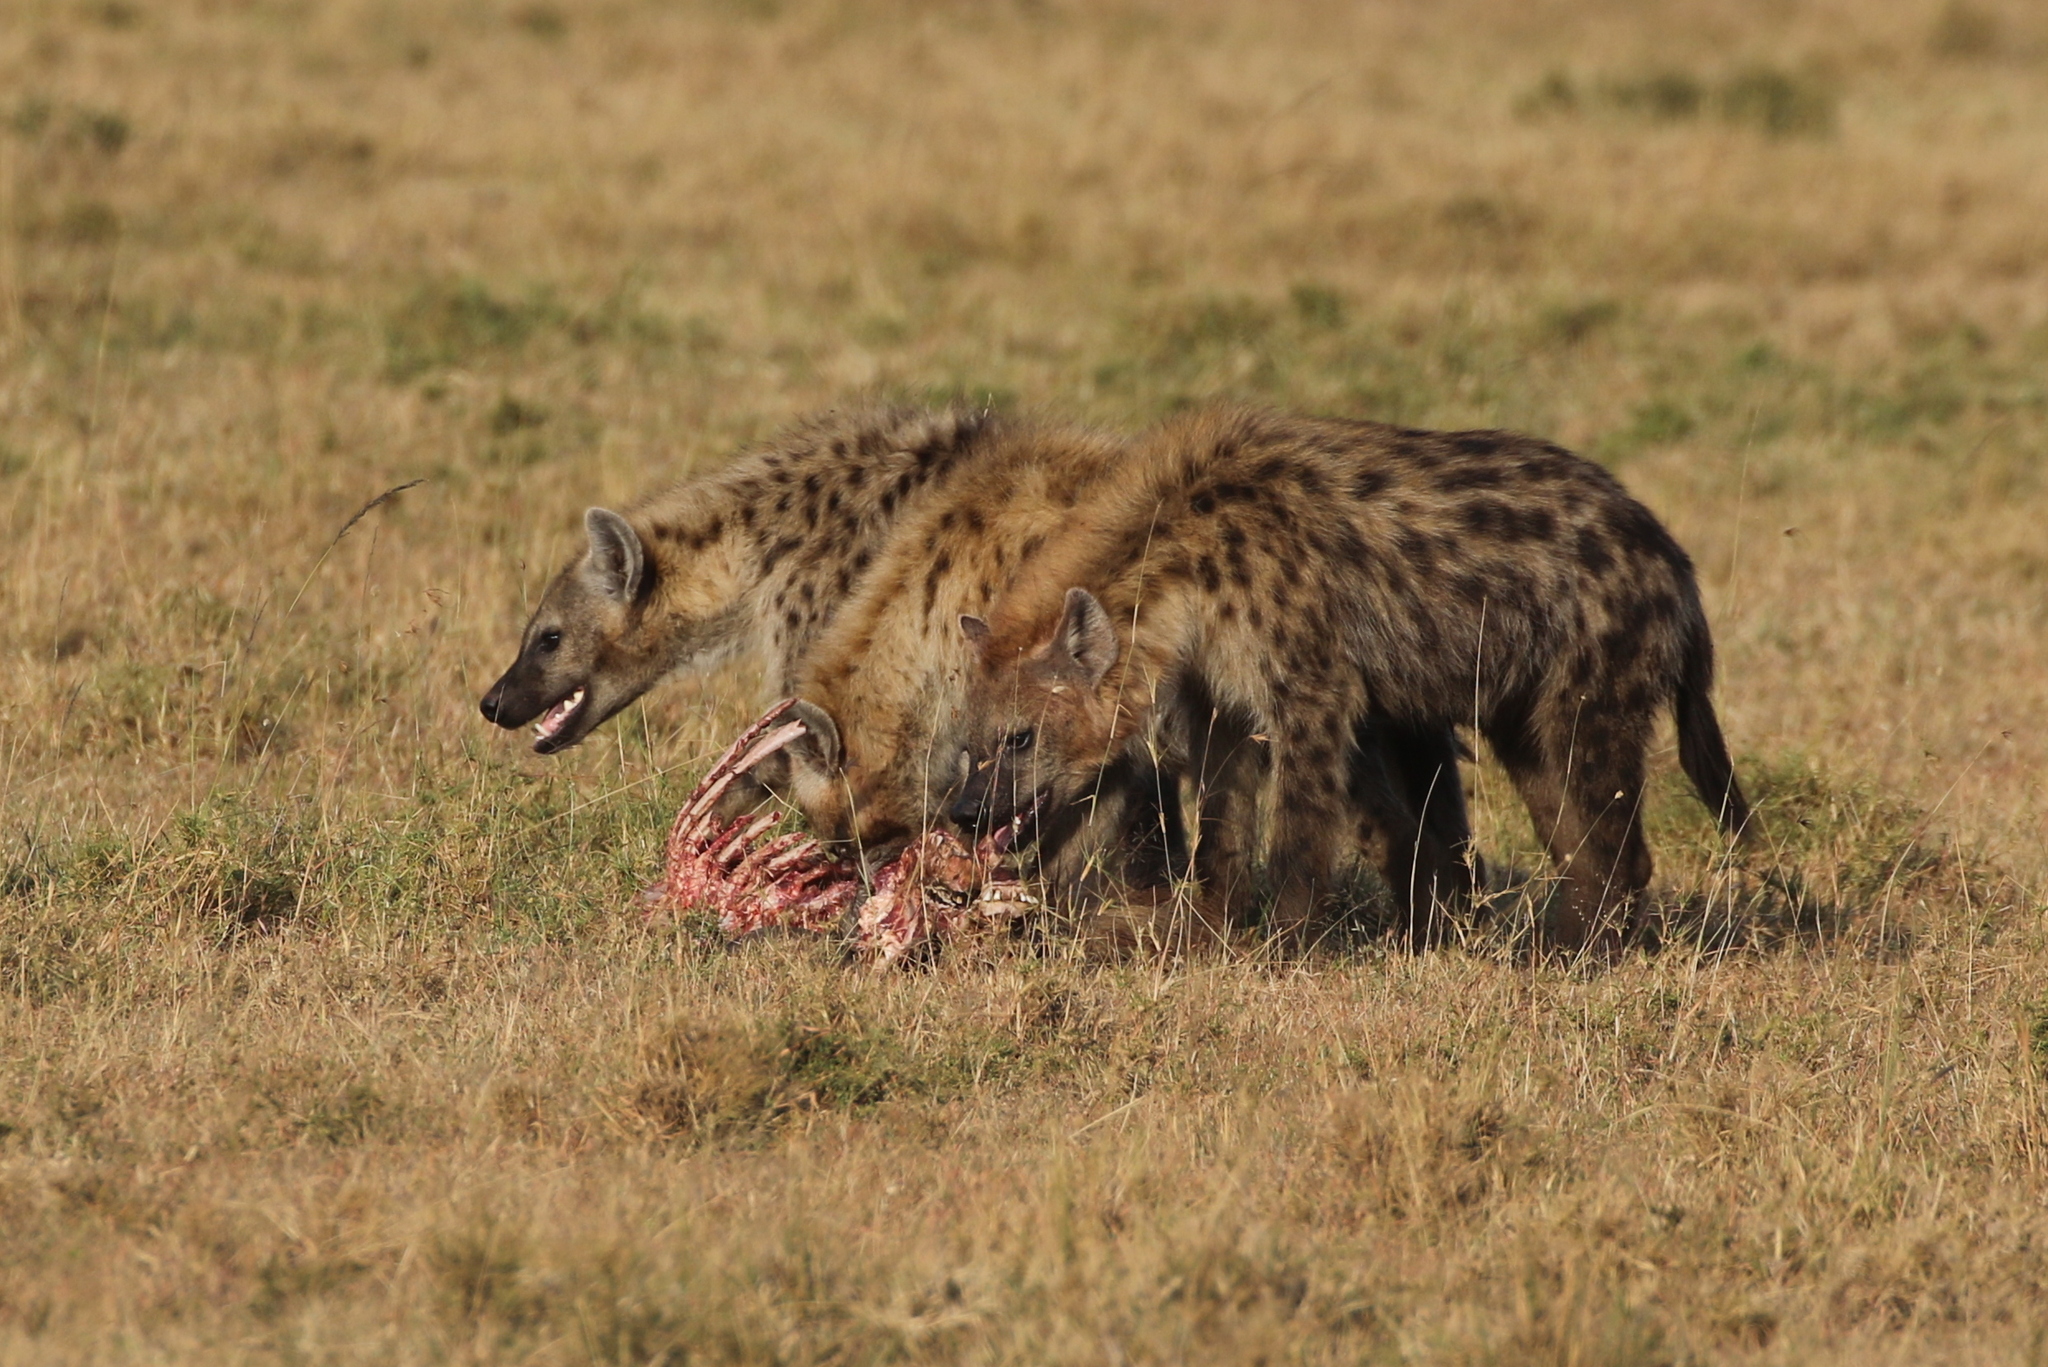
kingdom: Animalia
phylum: Chordata
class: Mammalia
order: Carnivora
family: Hyaenidae
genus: Crocuta
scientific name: Crocuta crocuta
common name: Spotted hyaena
